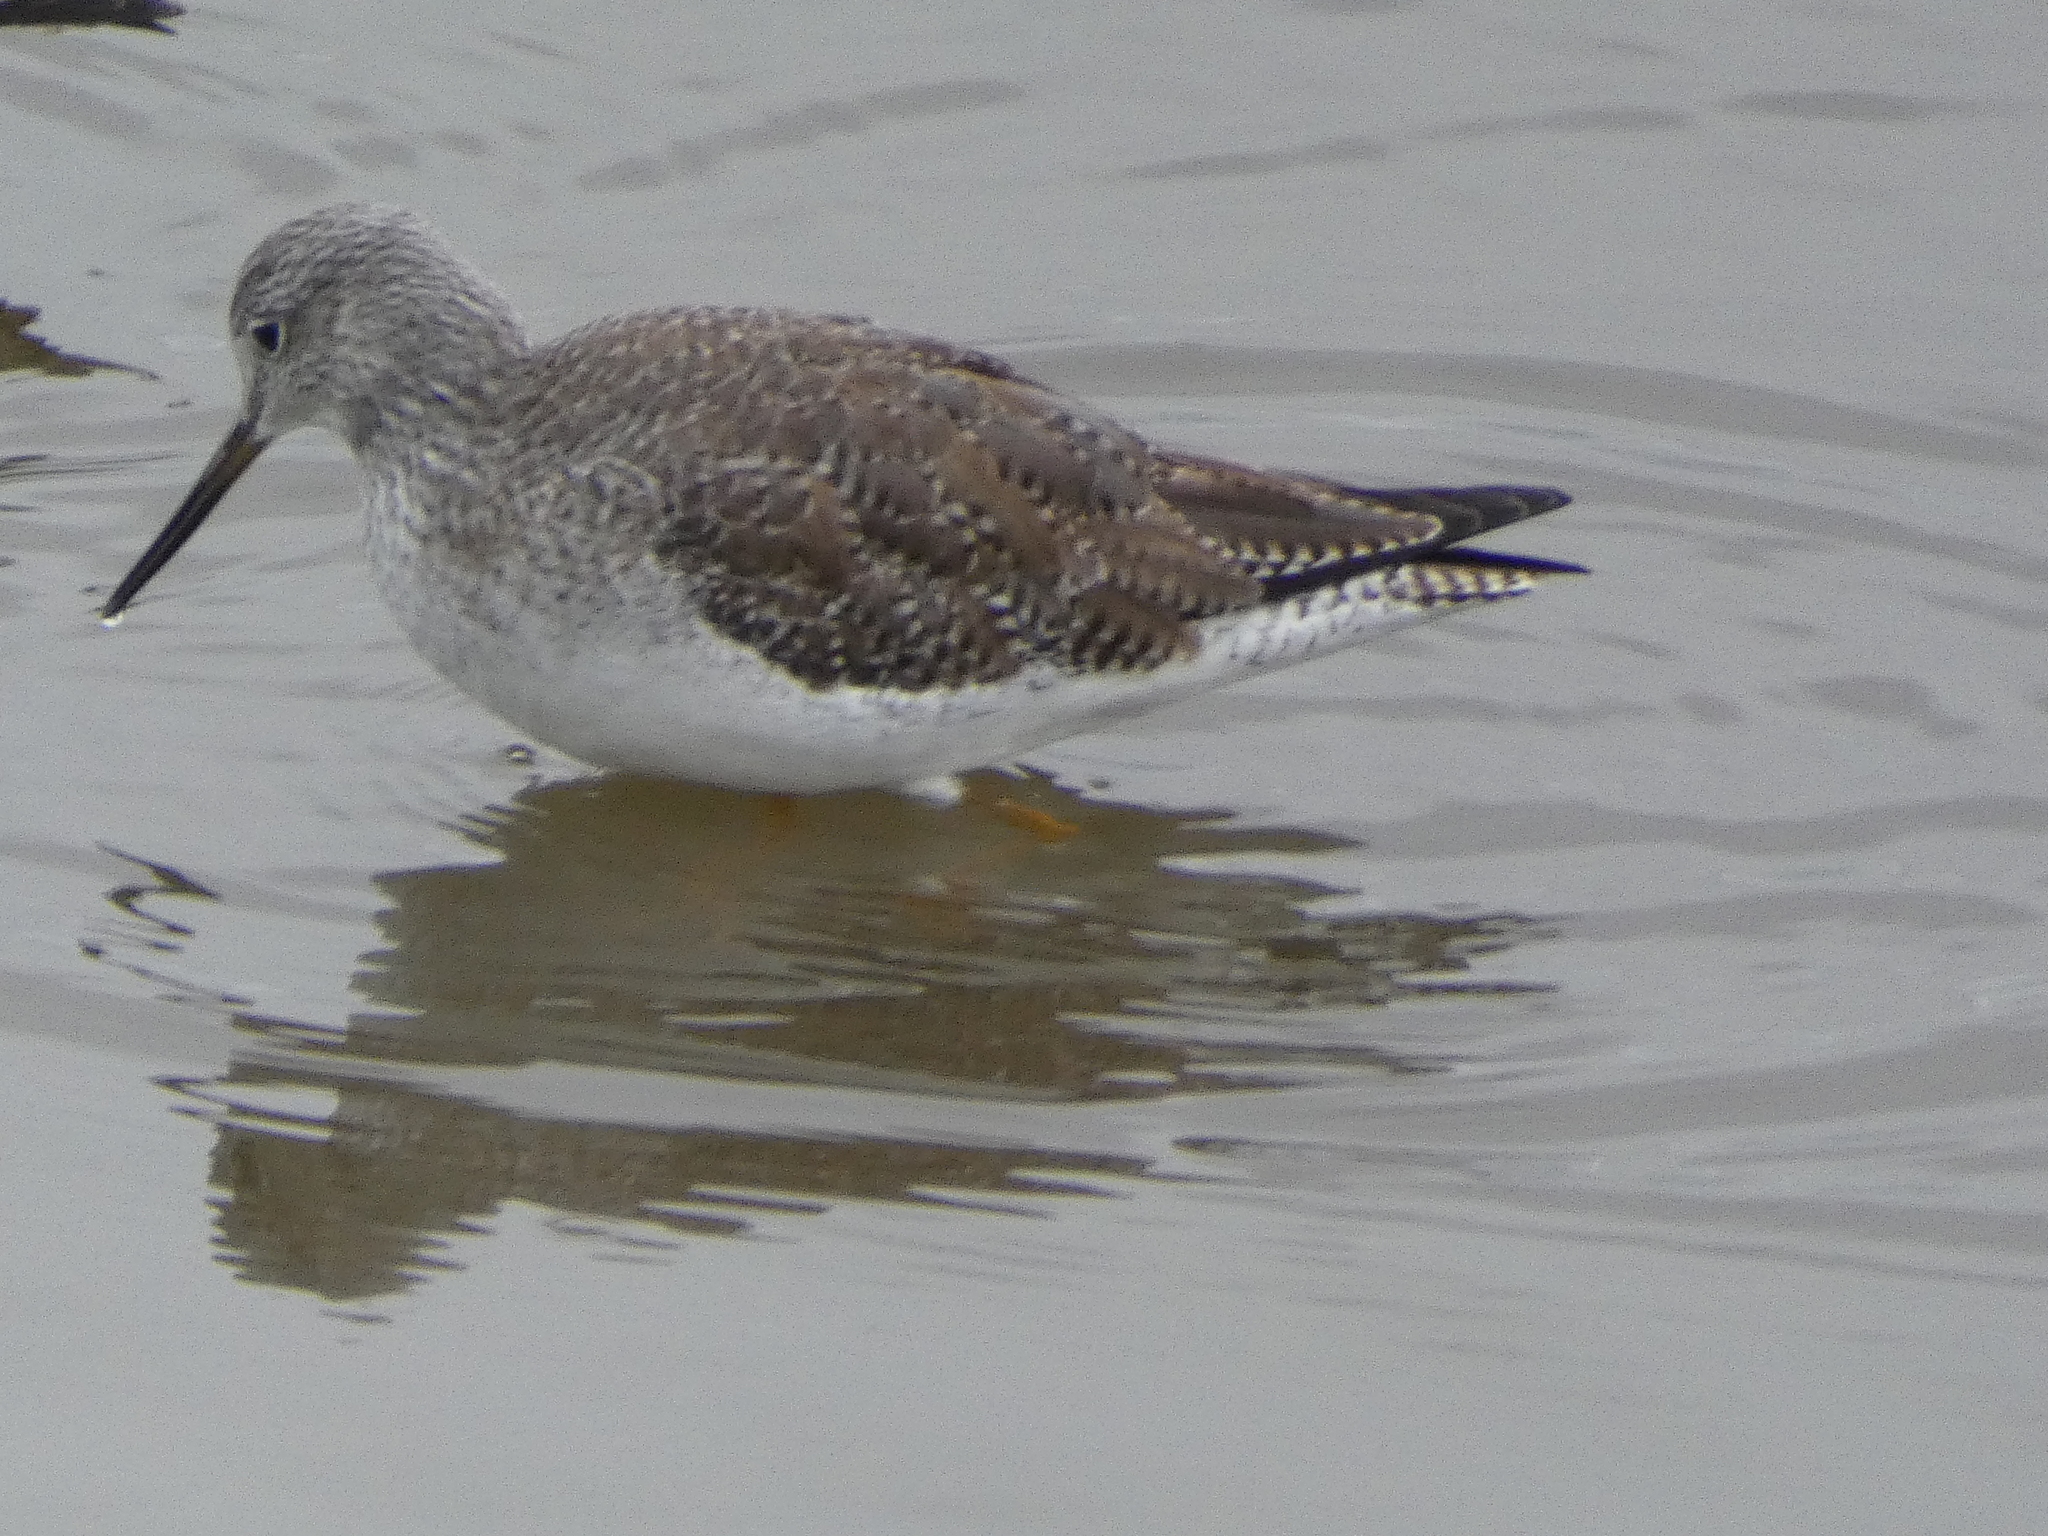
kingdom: Animalia
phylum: Chordata
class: Aves
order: Charadriiformes
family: Scolopacidae
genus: Tringa
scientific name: Tringa melanoleuca
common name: Greater yellowlegs
